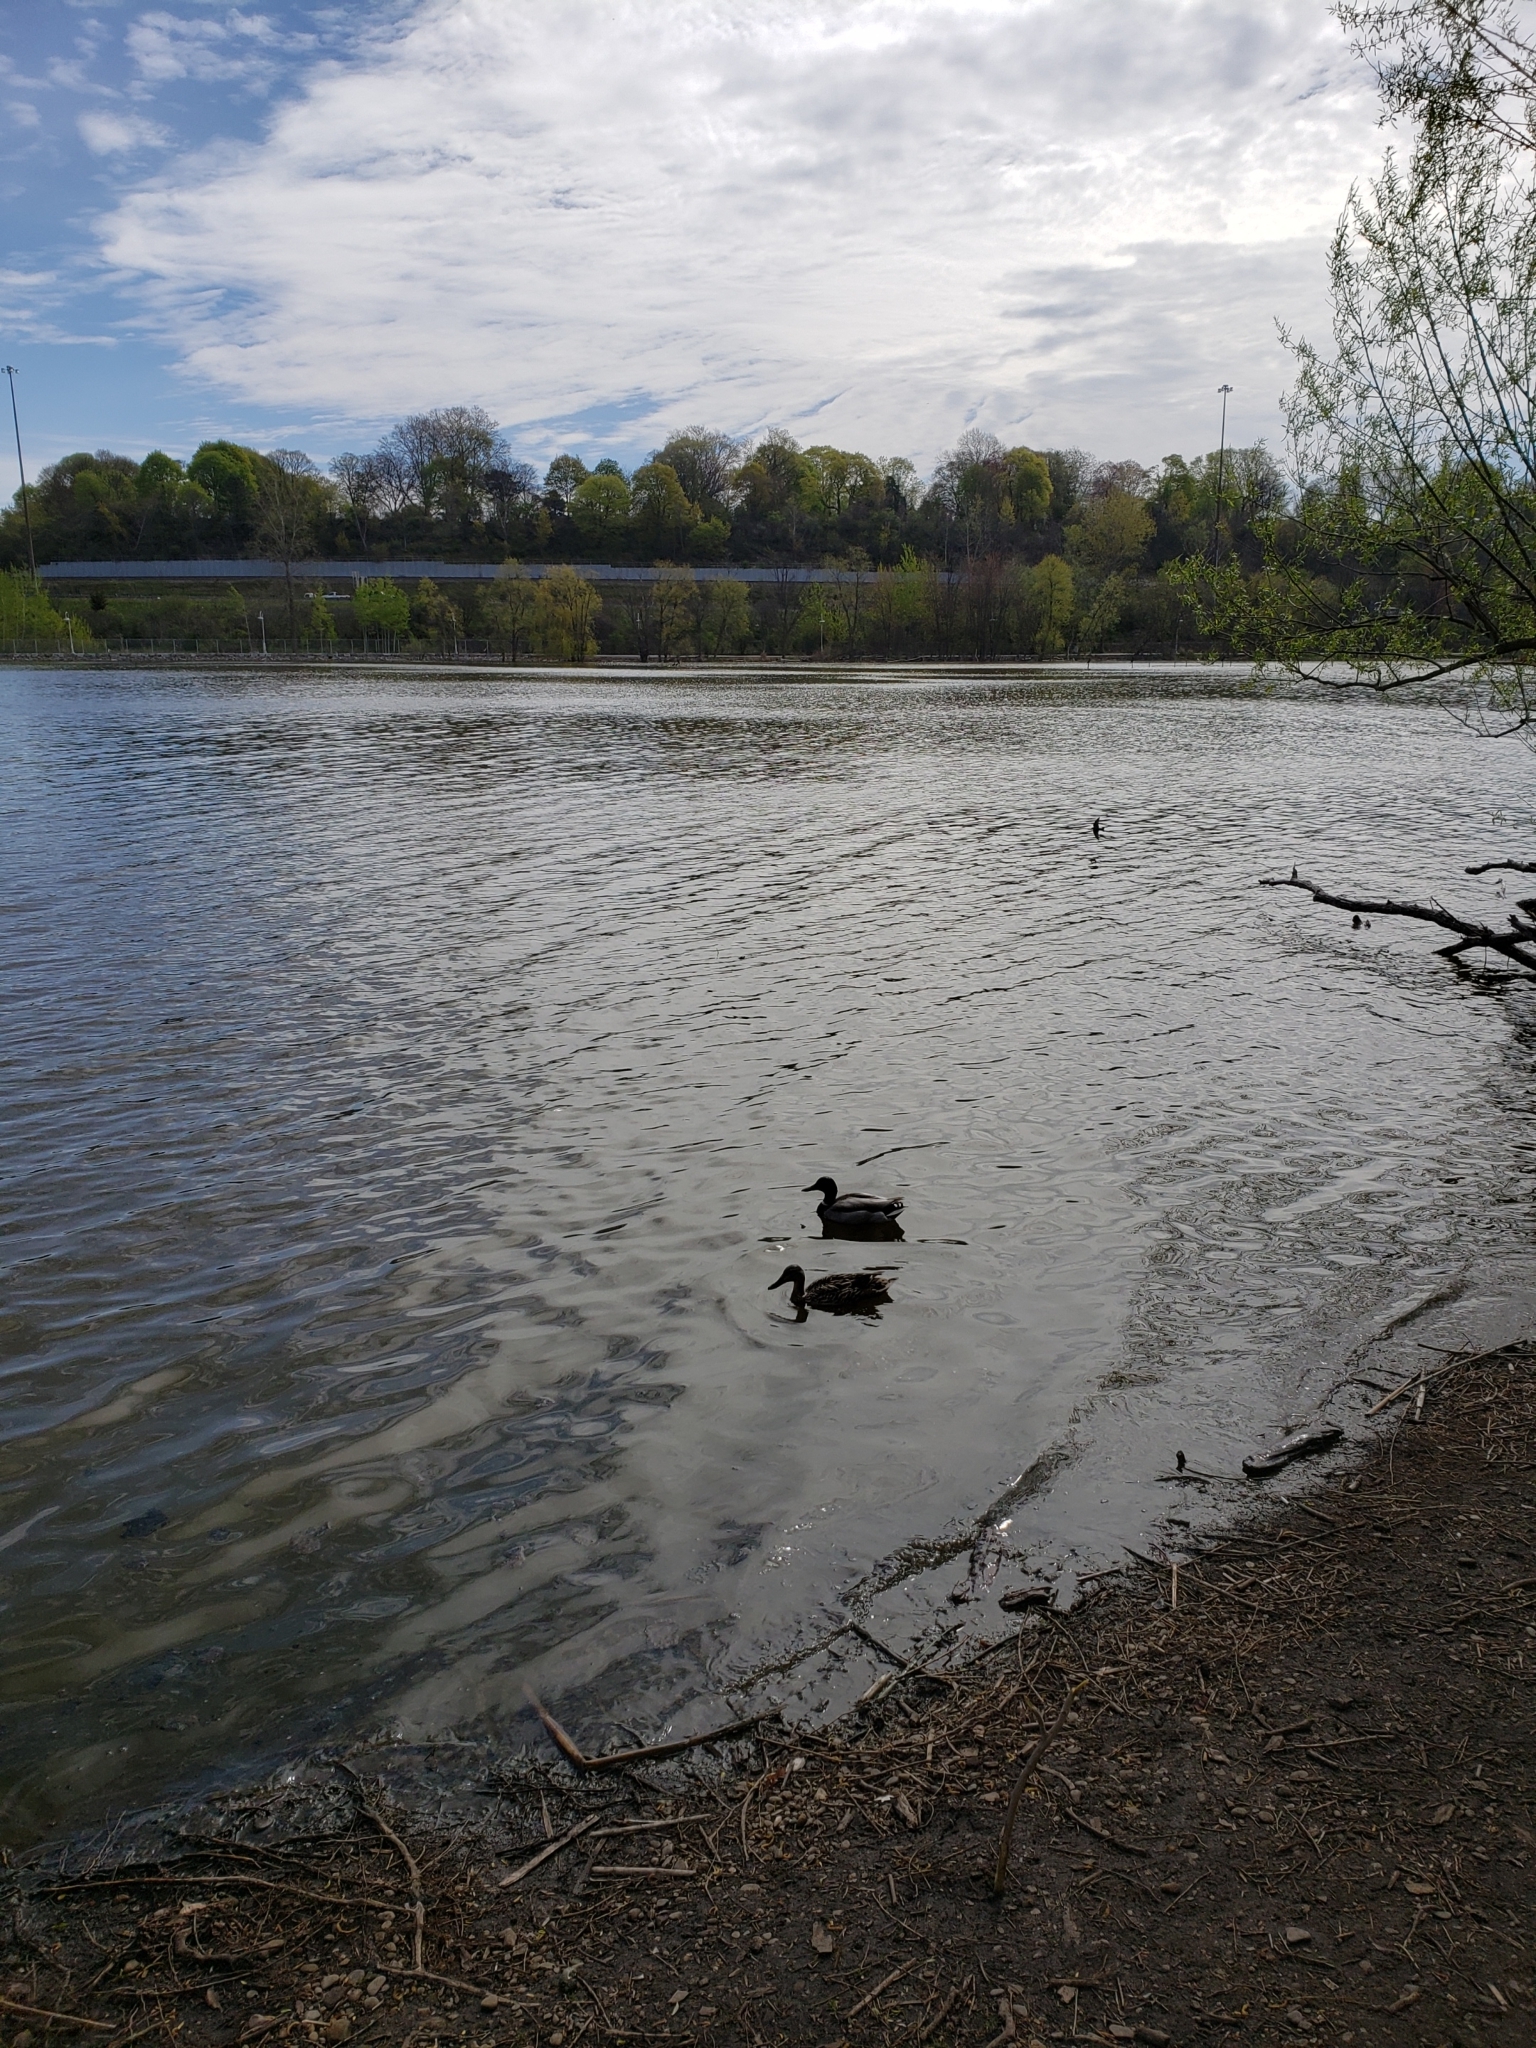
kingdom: Animalia
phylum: Chordata
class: Aves
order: Anseriformes
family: Anatidae
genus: Anas
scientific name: Anas platyrhynchos
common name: Mallard
